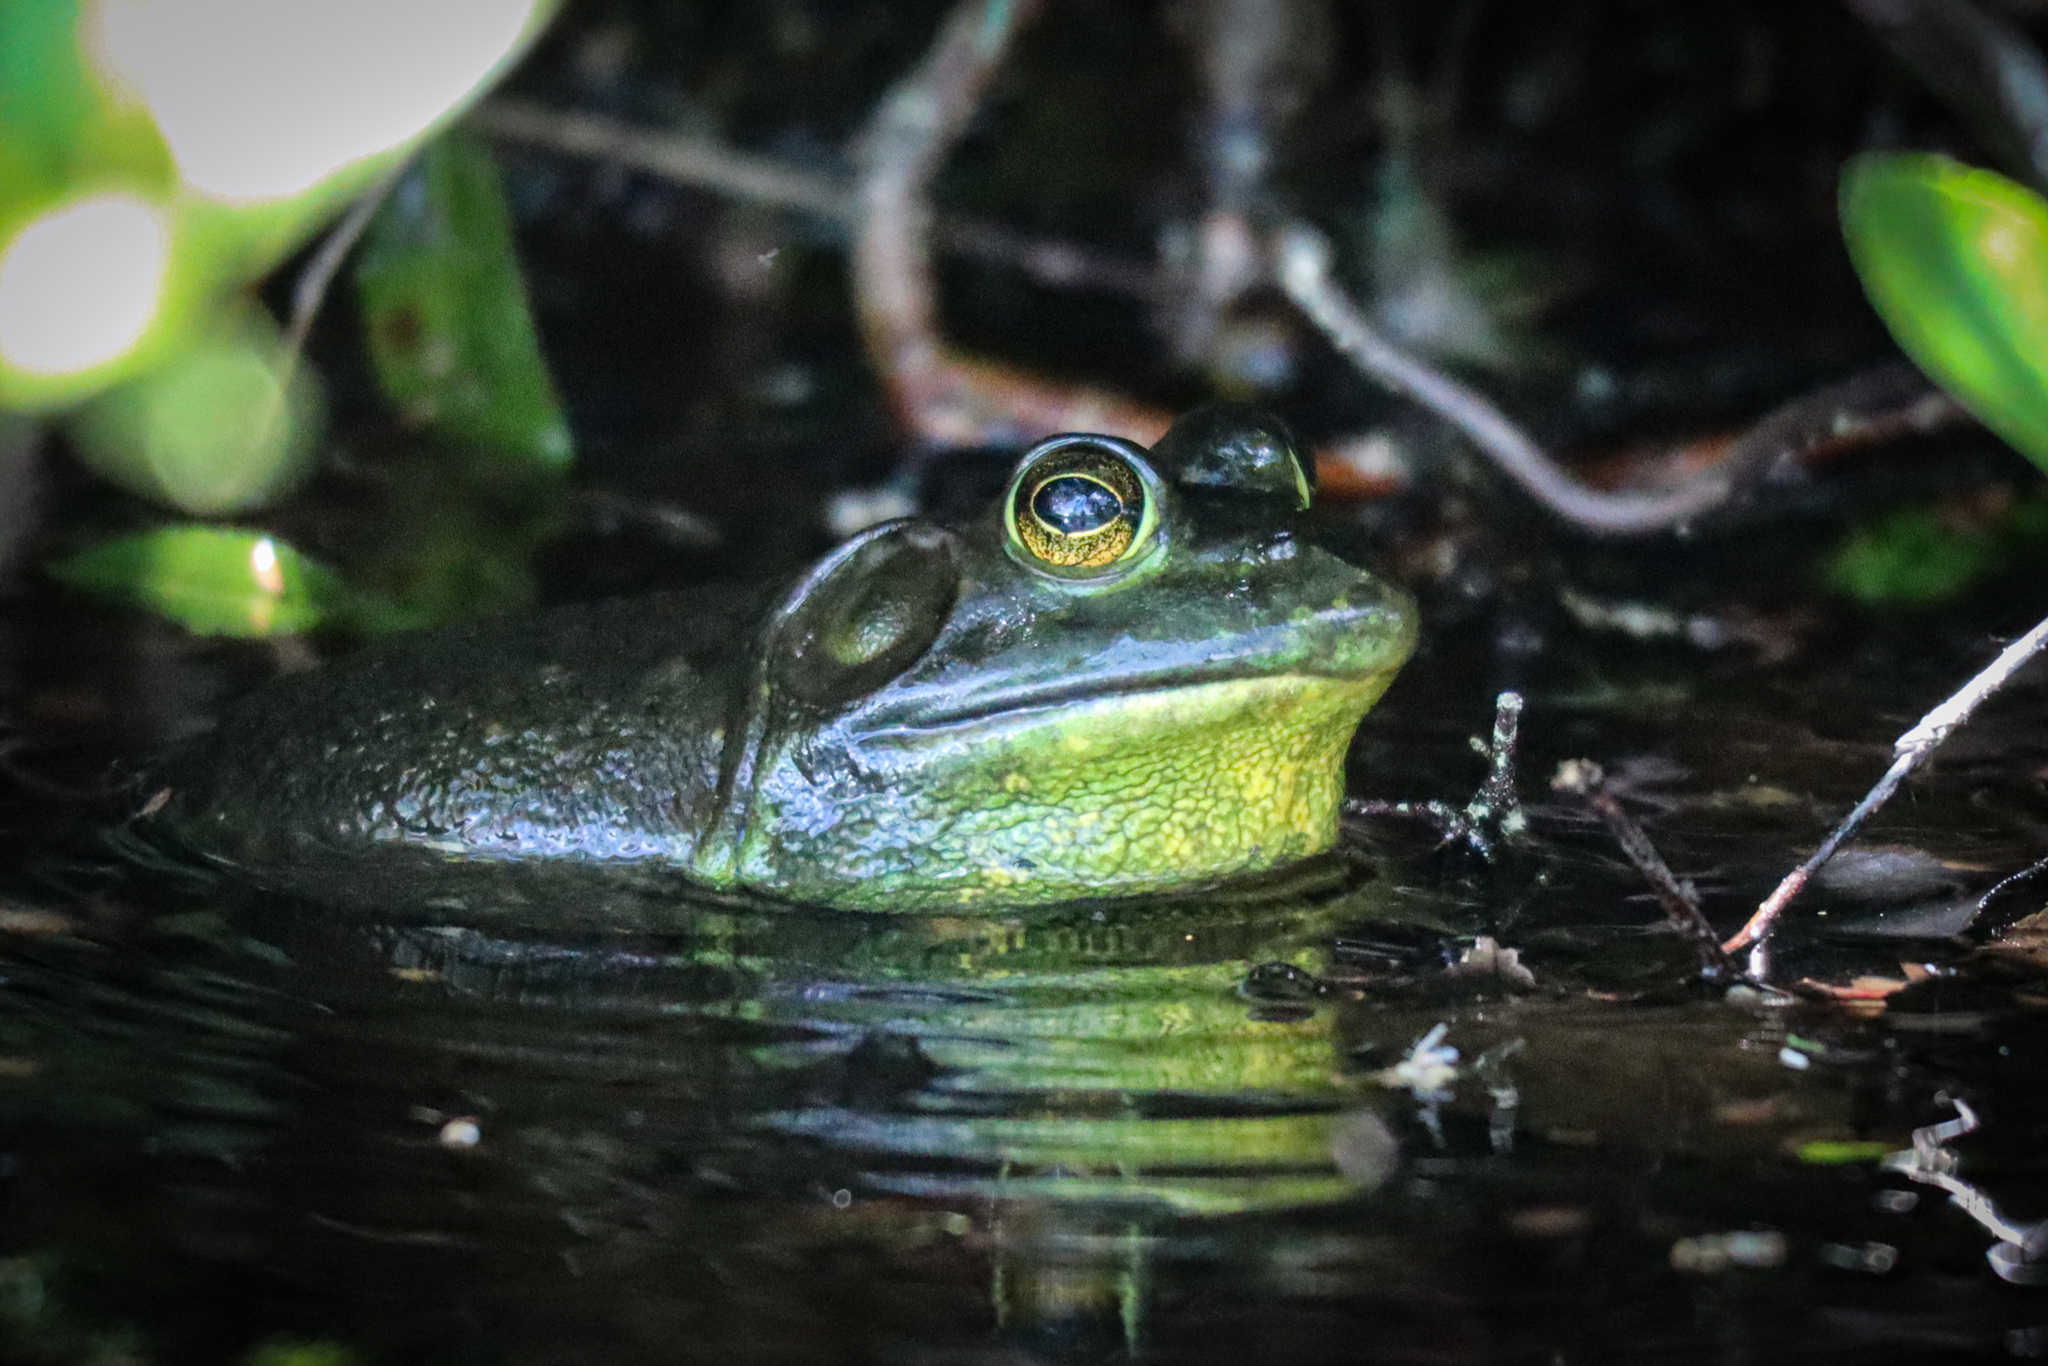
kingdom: Animalia
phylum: Chordata
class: Amphibia
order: Anura
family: Ranidae
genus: Lithobates
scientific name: Lithobates catesbeianus
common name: American bullfrog
